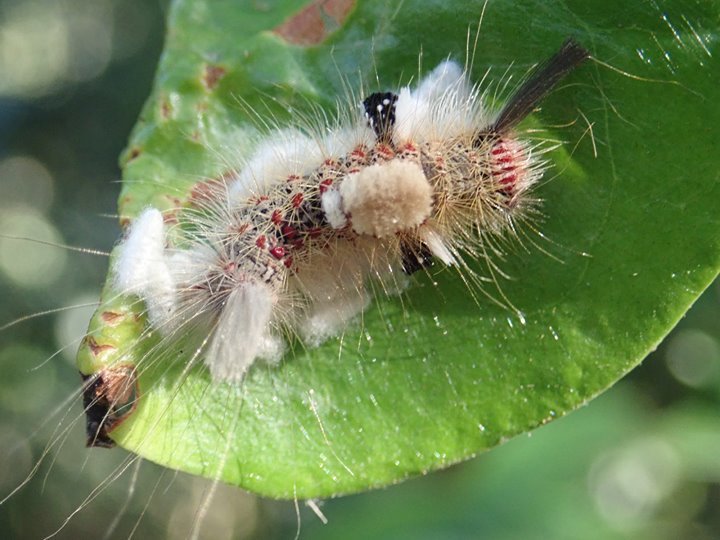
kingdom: Animalia
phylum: Arthropoda
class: Insecta
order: Lepidoptera
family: Erebidae
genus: Olene
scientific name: Olene mendosa
